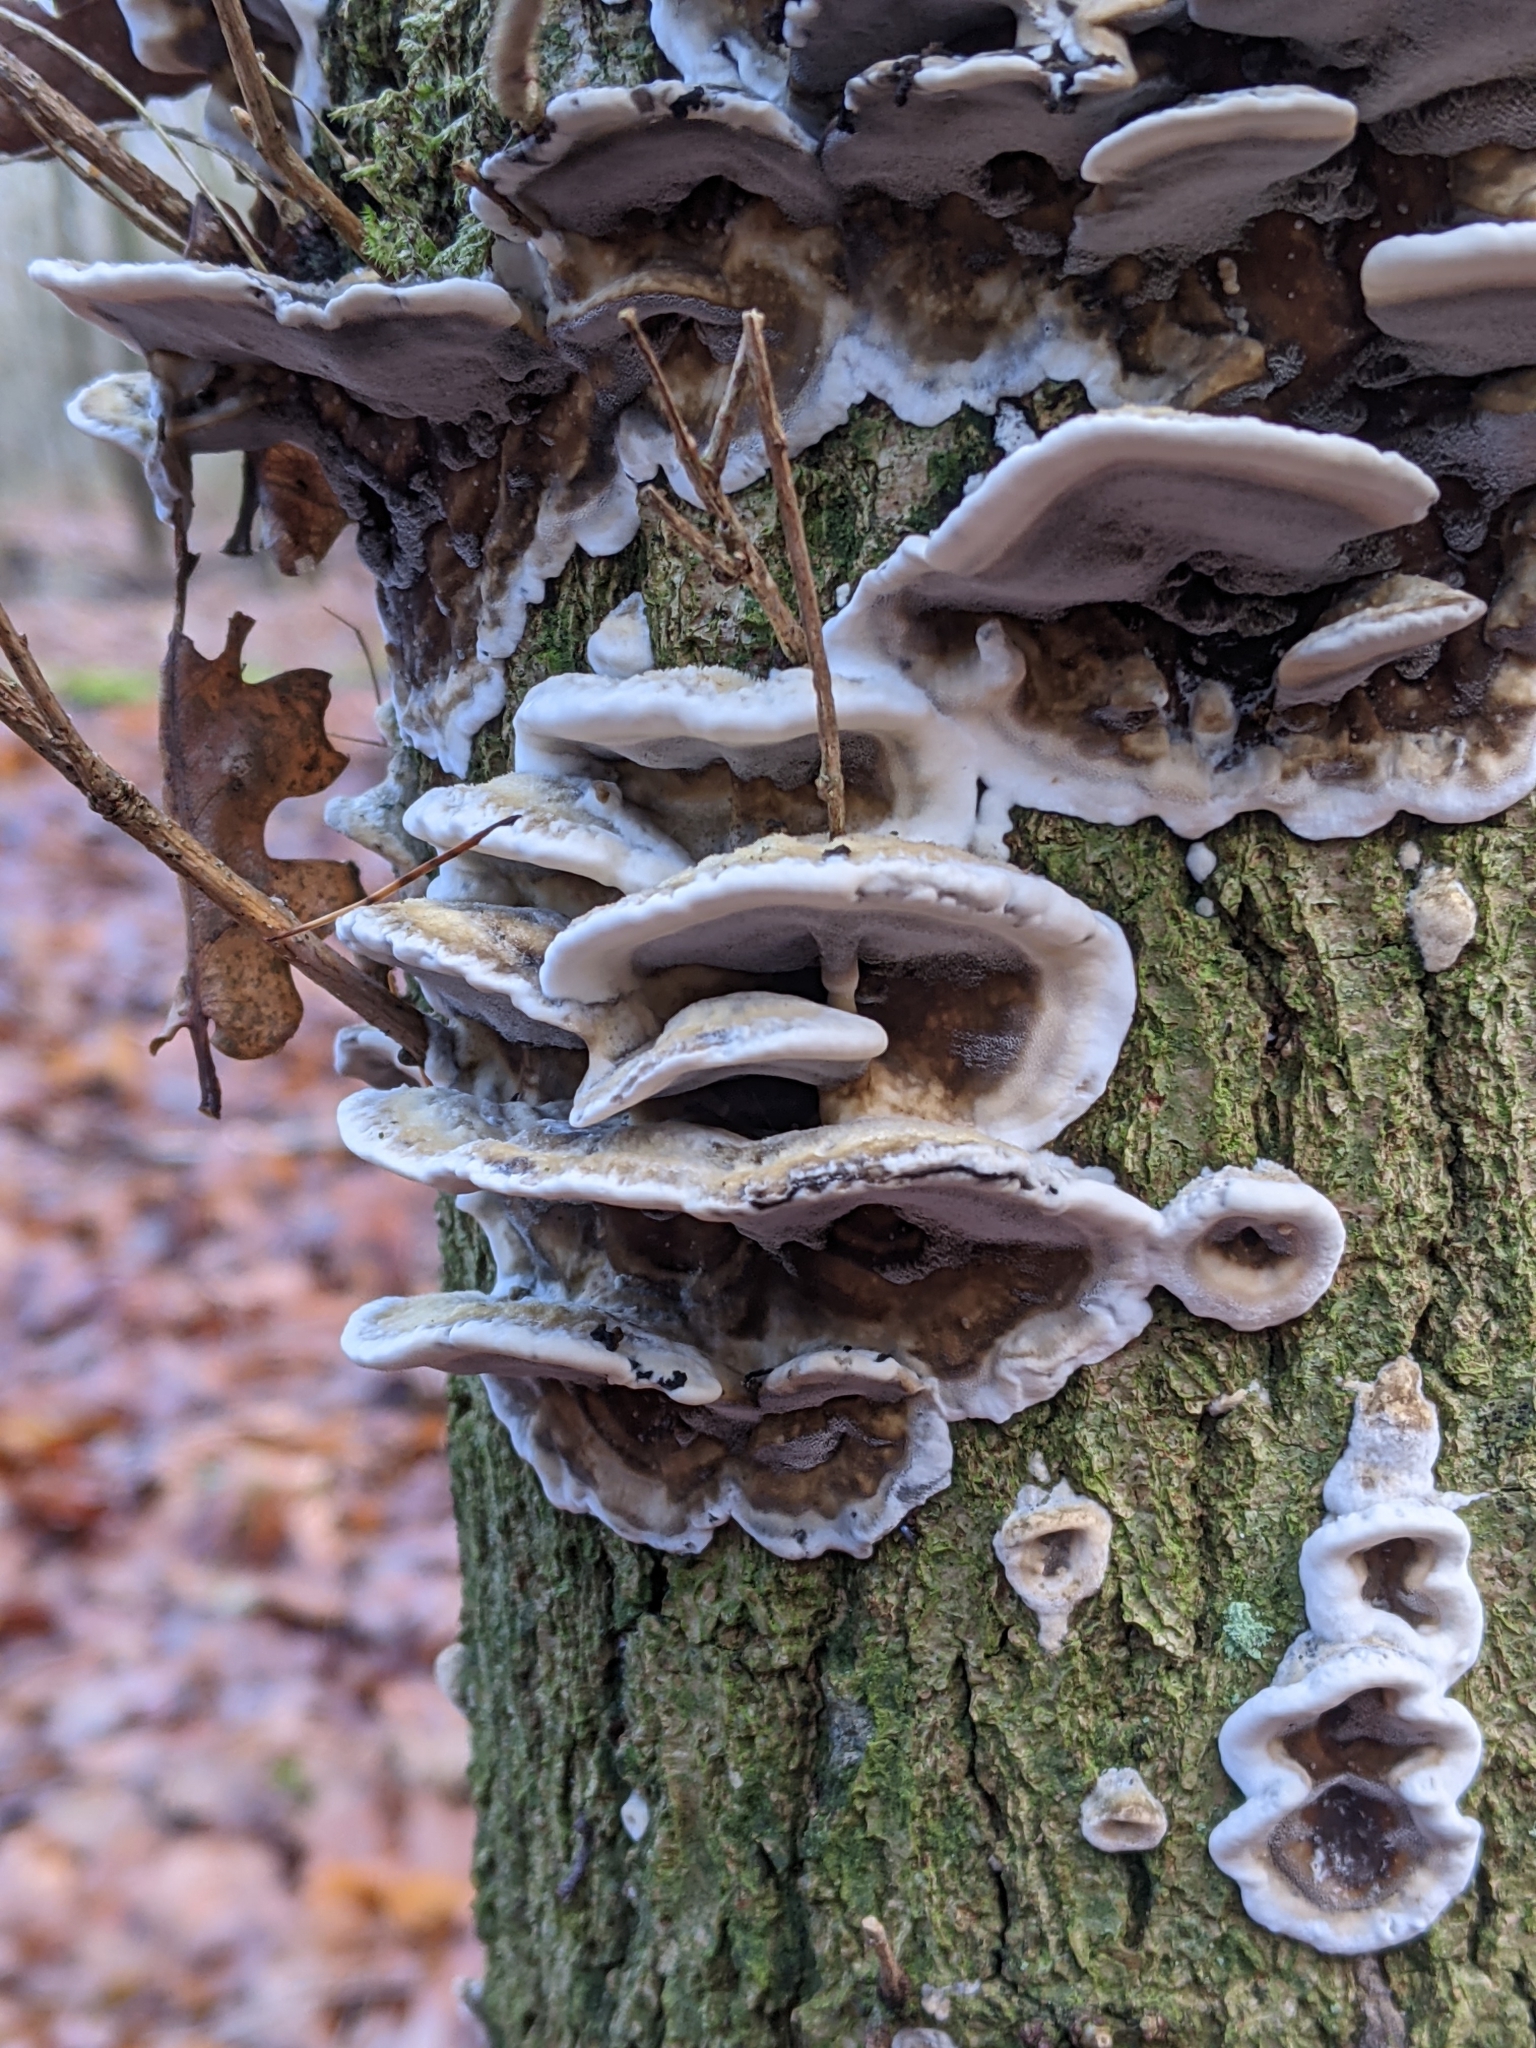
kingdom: Fungi
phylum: Basidiomycota
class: Agaricomycetes
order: Polyporales
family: Phanerochaetaceae
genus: Bjerkandera
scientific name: Bjerkandera adusta
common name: Smoky bracket
